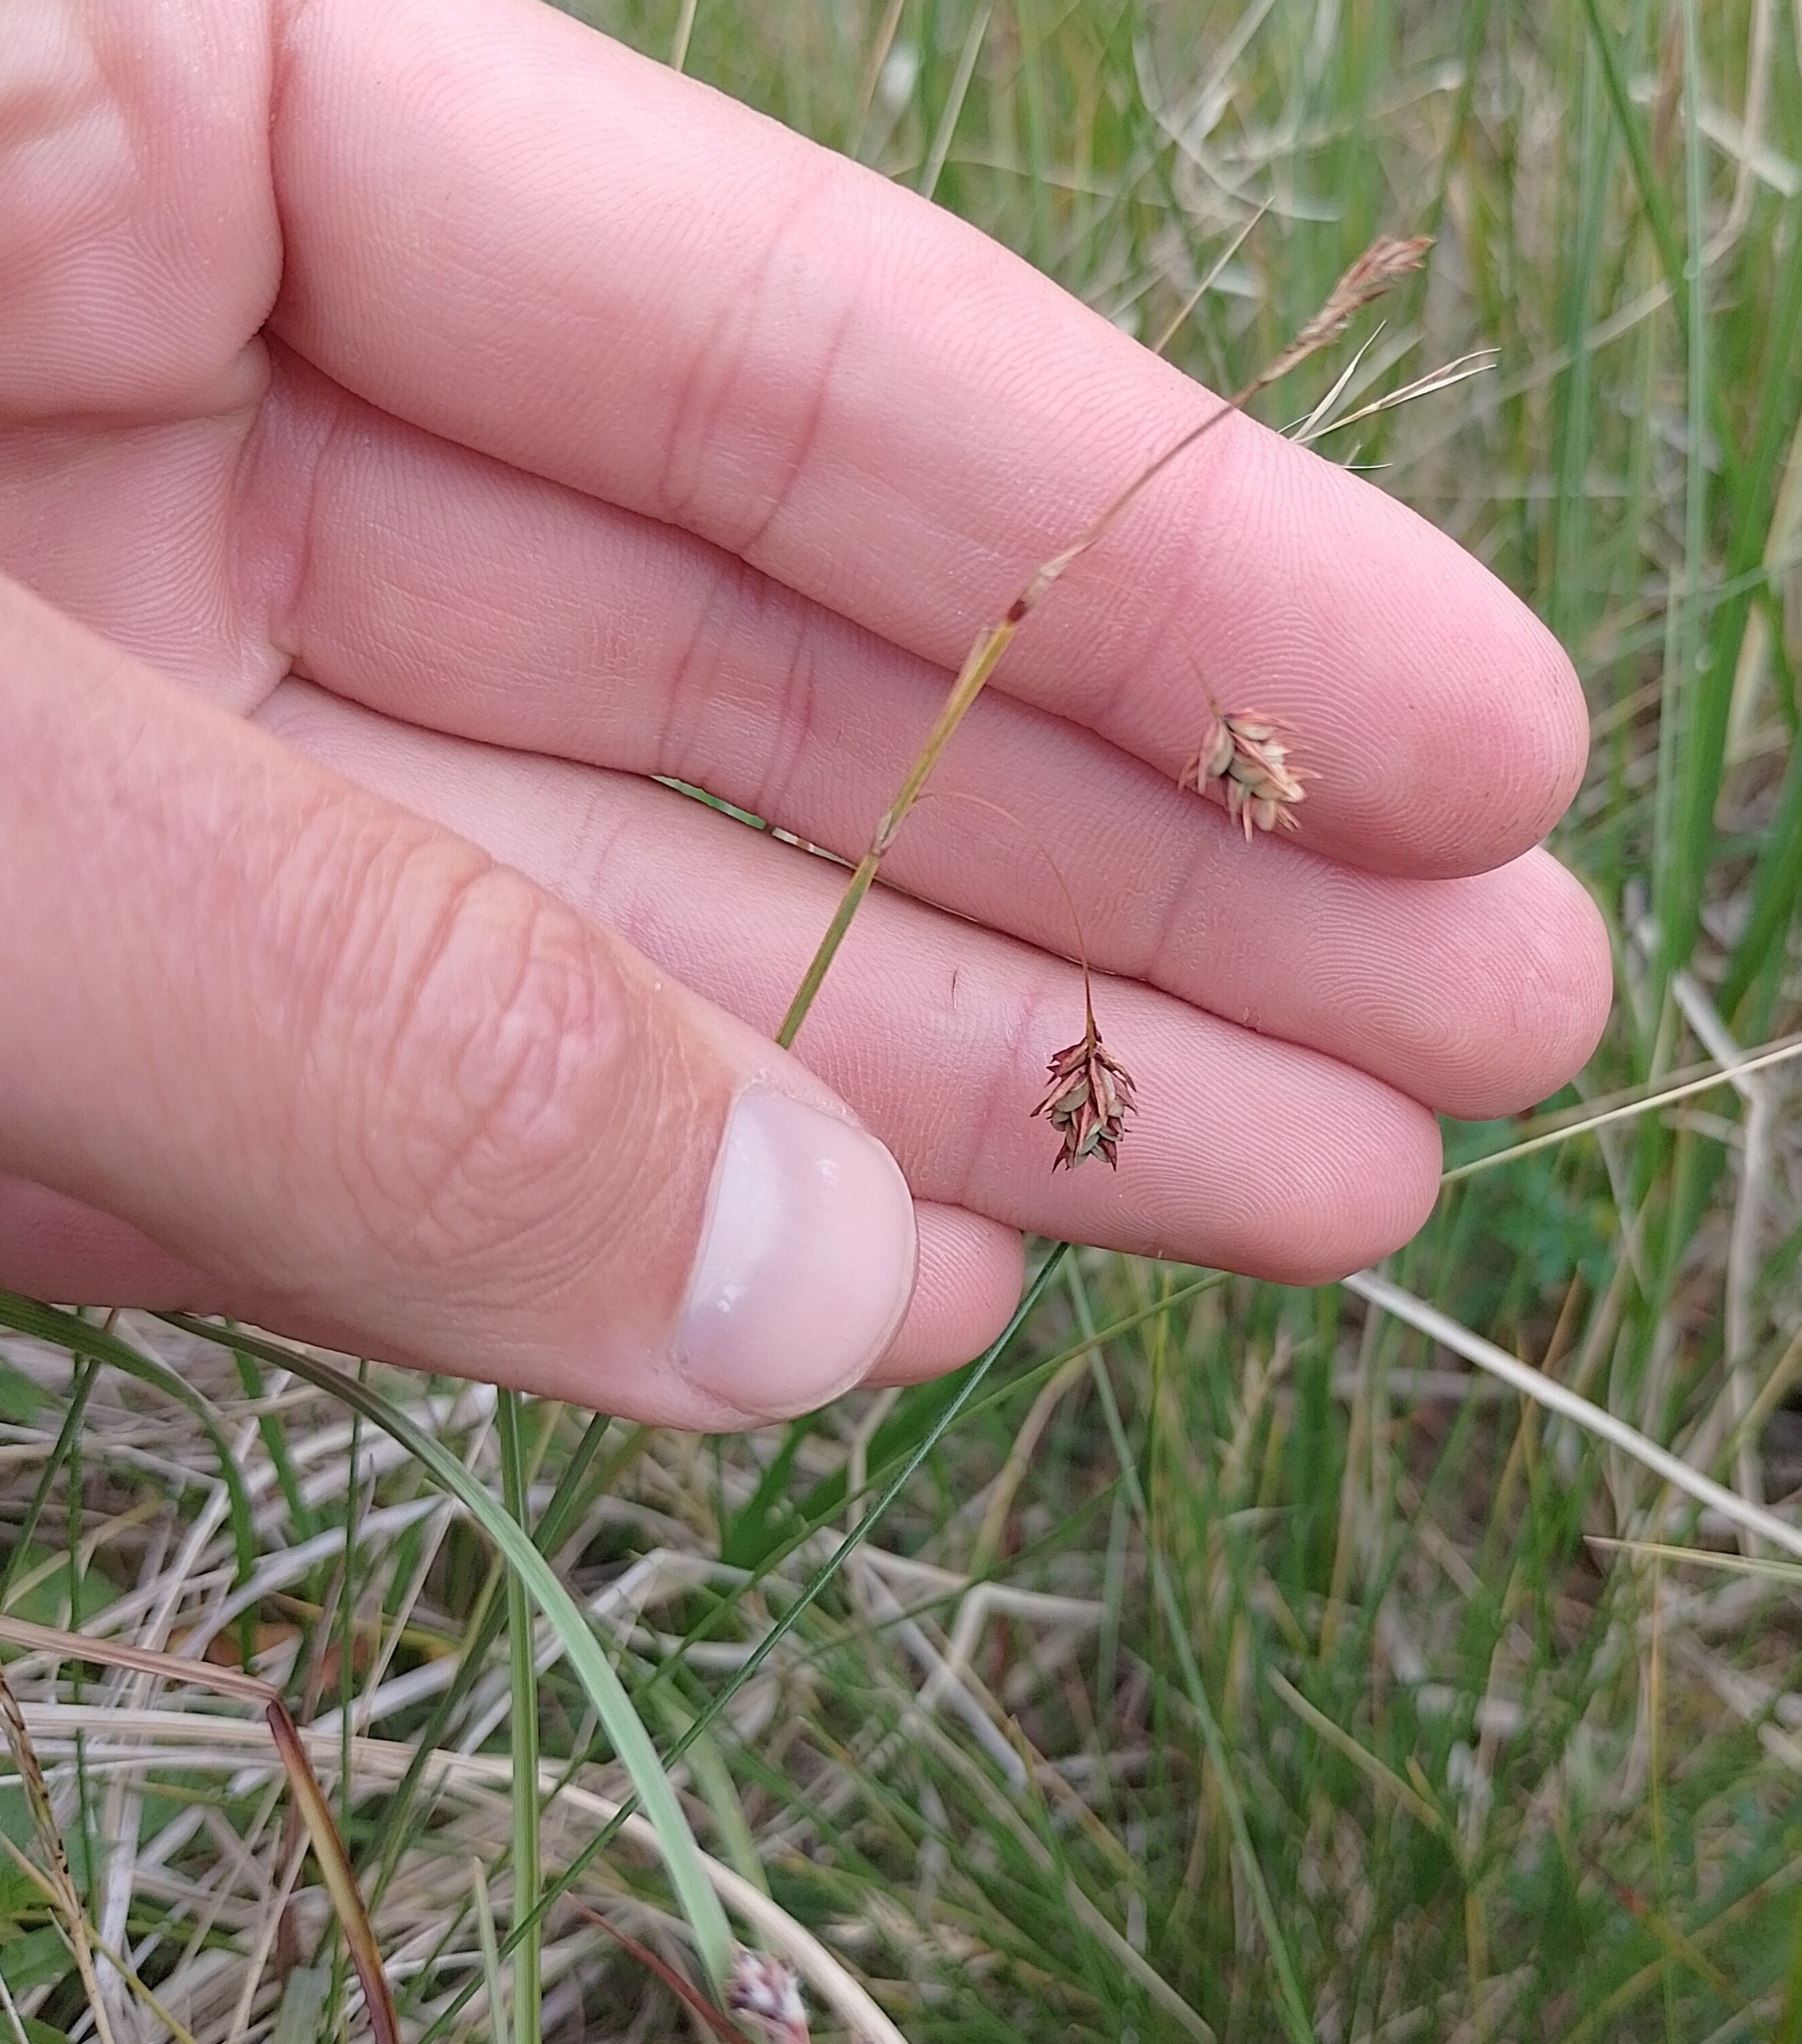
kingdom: Plantae
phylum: Tracheophyta
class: Liliopsida
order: Poales
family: Cyperaceae
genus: Carex
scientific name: Carex limosa
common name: Bog sedge
